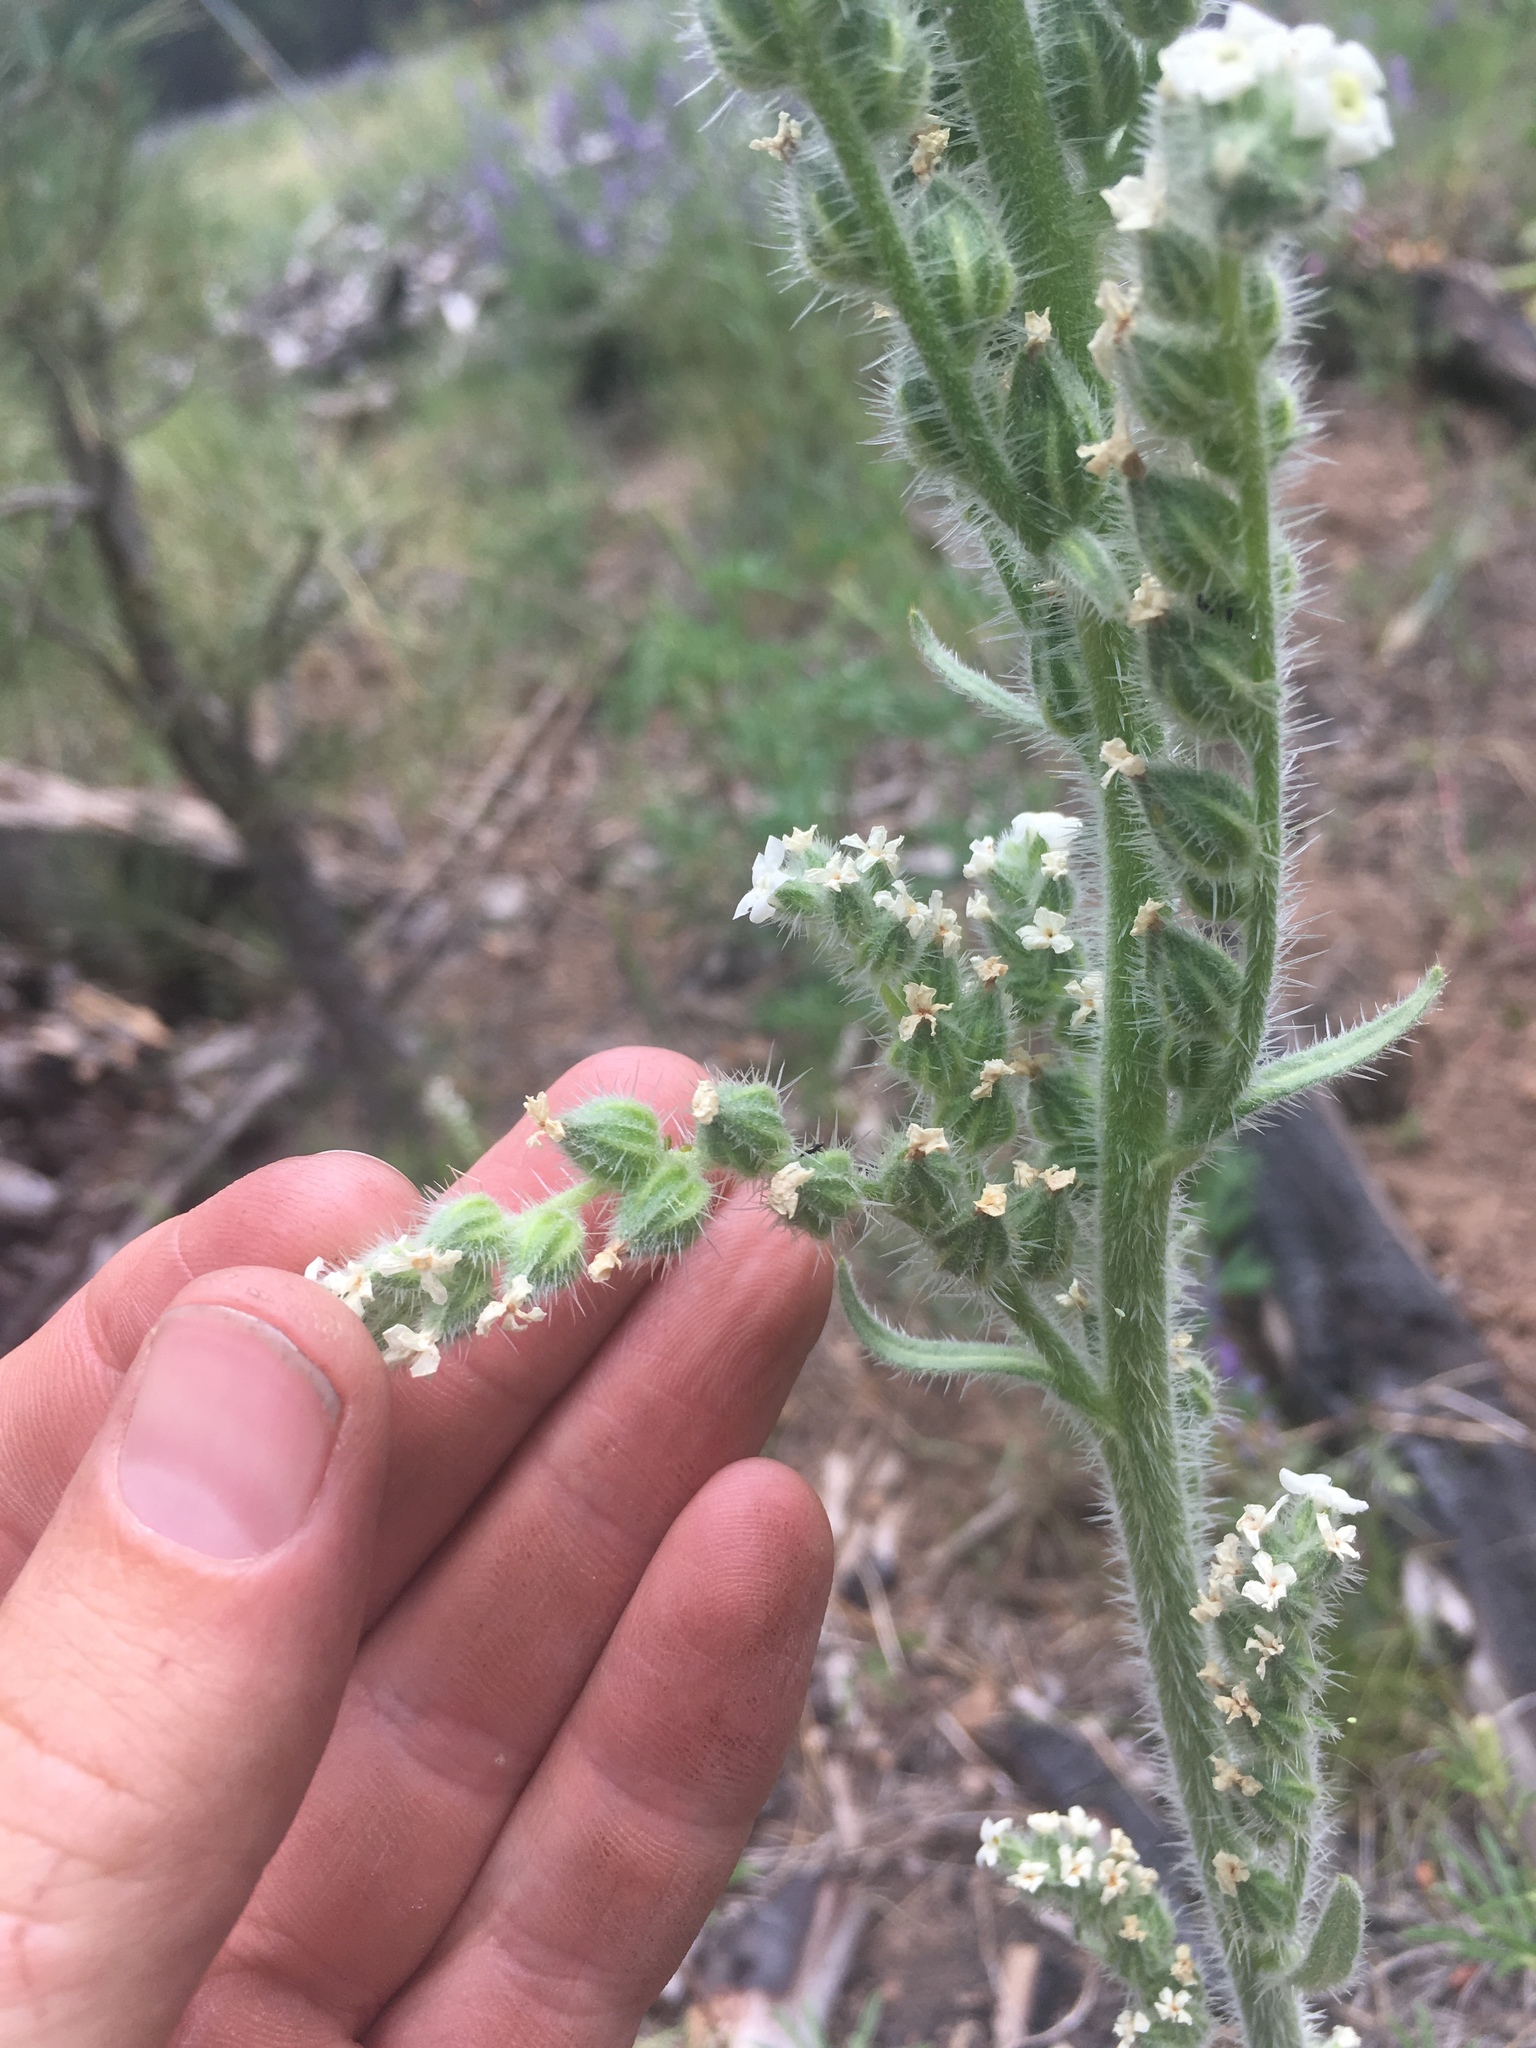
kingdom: Plantae
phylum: Tracheophyta
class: Magnoliopsida
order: Boraginales
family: Boraginaceae
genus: Oreocarya
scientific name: Oreocarya setosissima
